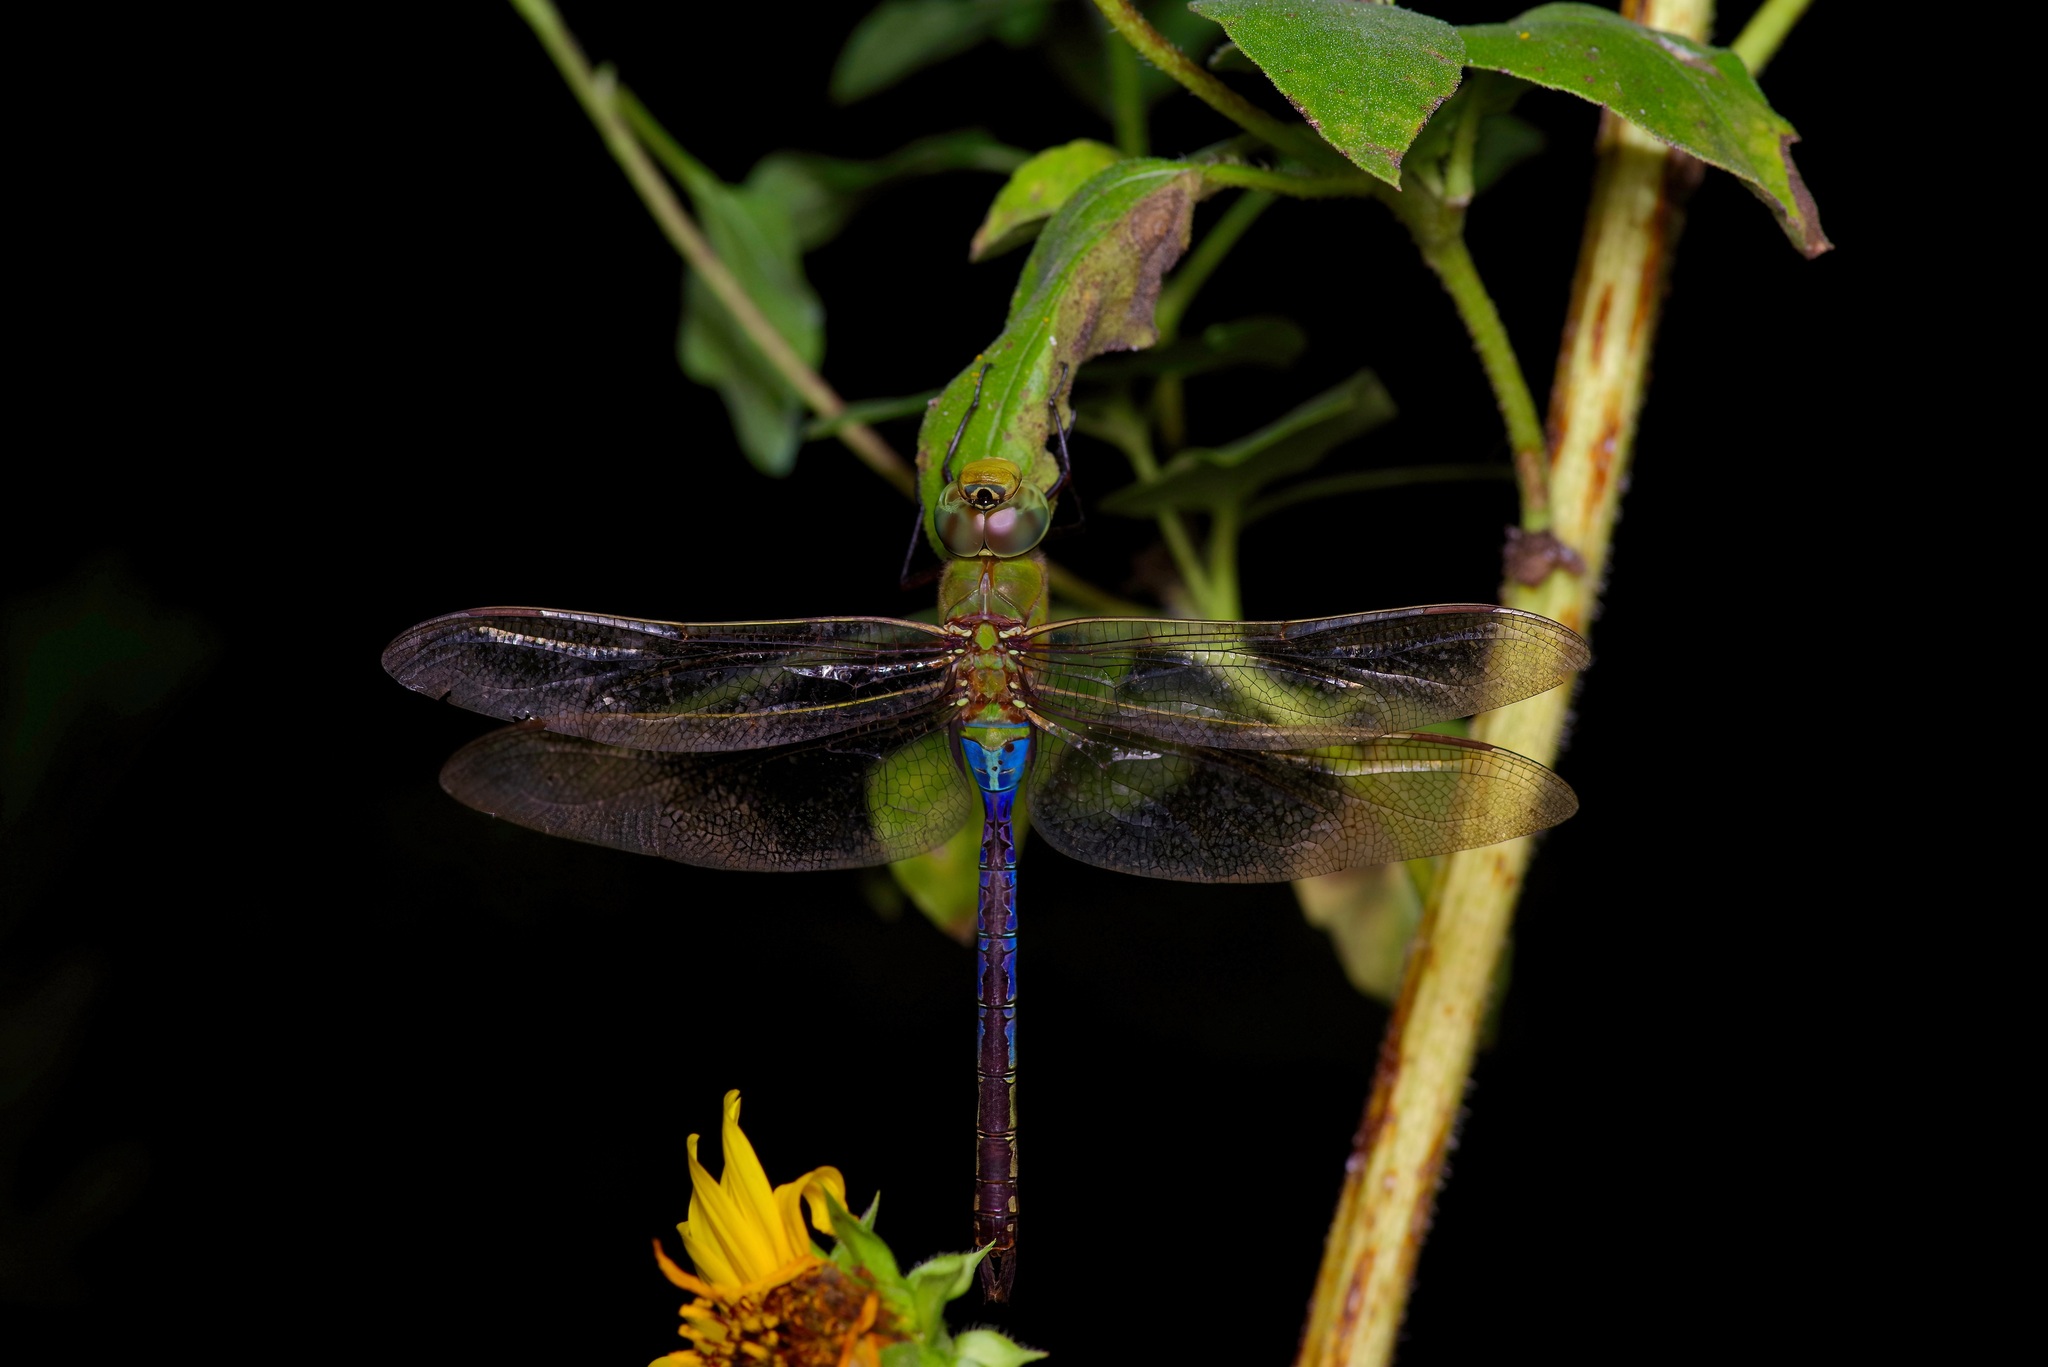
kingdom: Animalia
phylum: Arthropoda
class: Insecta
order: Odonata
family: Aeshnidae
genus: Anax
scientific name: Anax junius
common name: Common green darner
